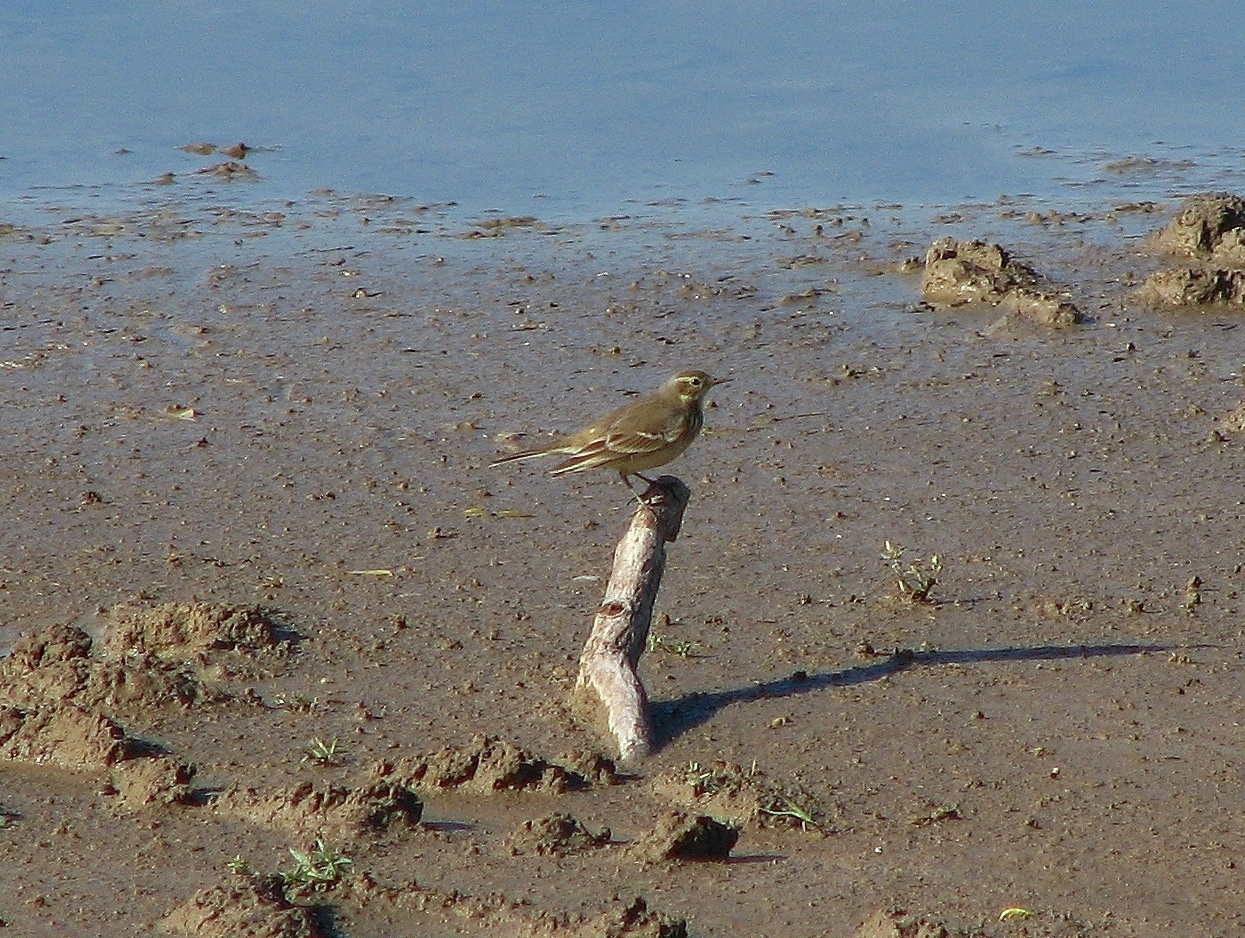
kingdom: Animalia
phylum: Chordata
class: Aves
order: Passeriformes
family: Motacillidae
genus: Anthus
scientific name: Anthus rubescens
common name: Buff-bellied pipit
